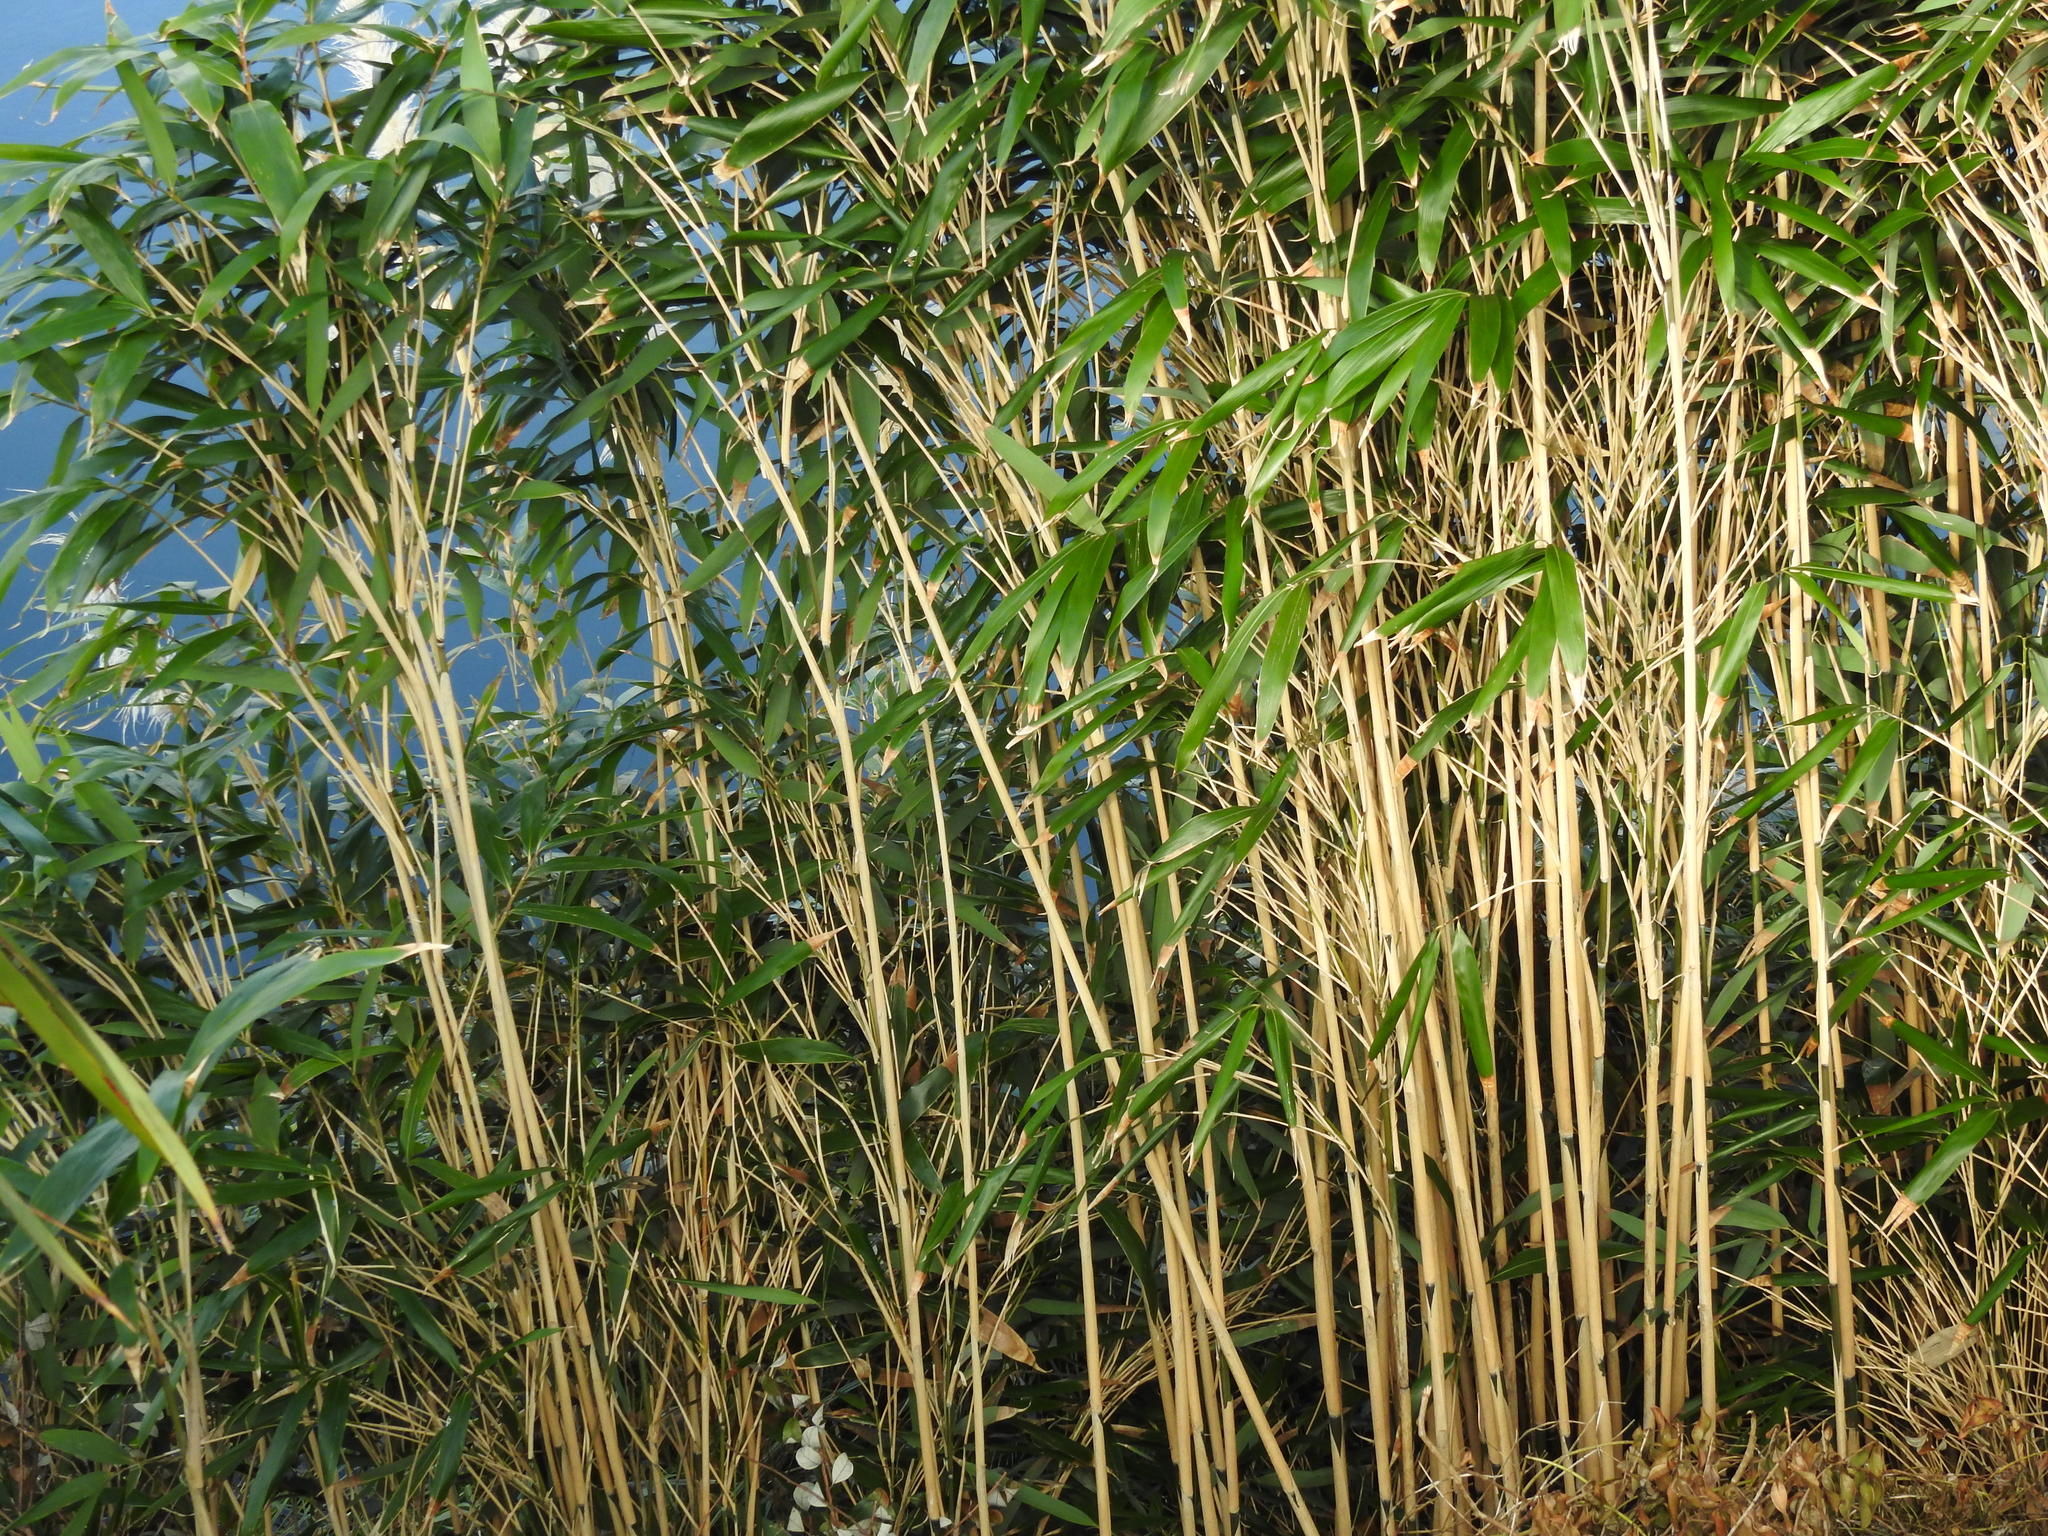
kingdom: Plantae
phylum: Tracheophyta
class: Liliopsida
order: Poales
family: Poaceae
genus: Pseudosasa
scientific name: Pseudosasa japonica
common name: Arrow bamboo
